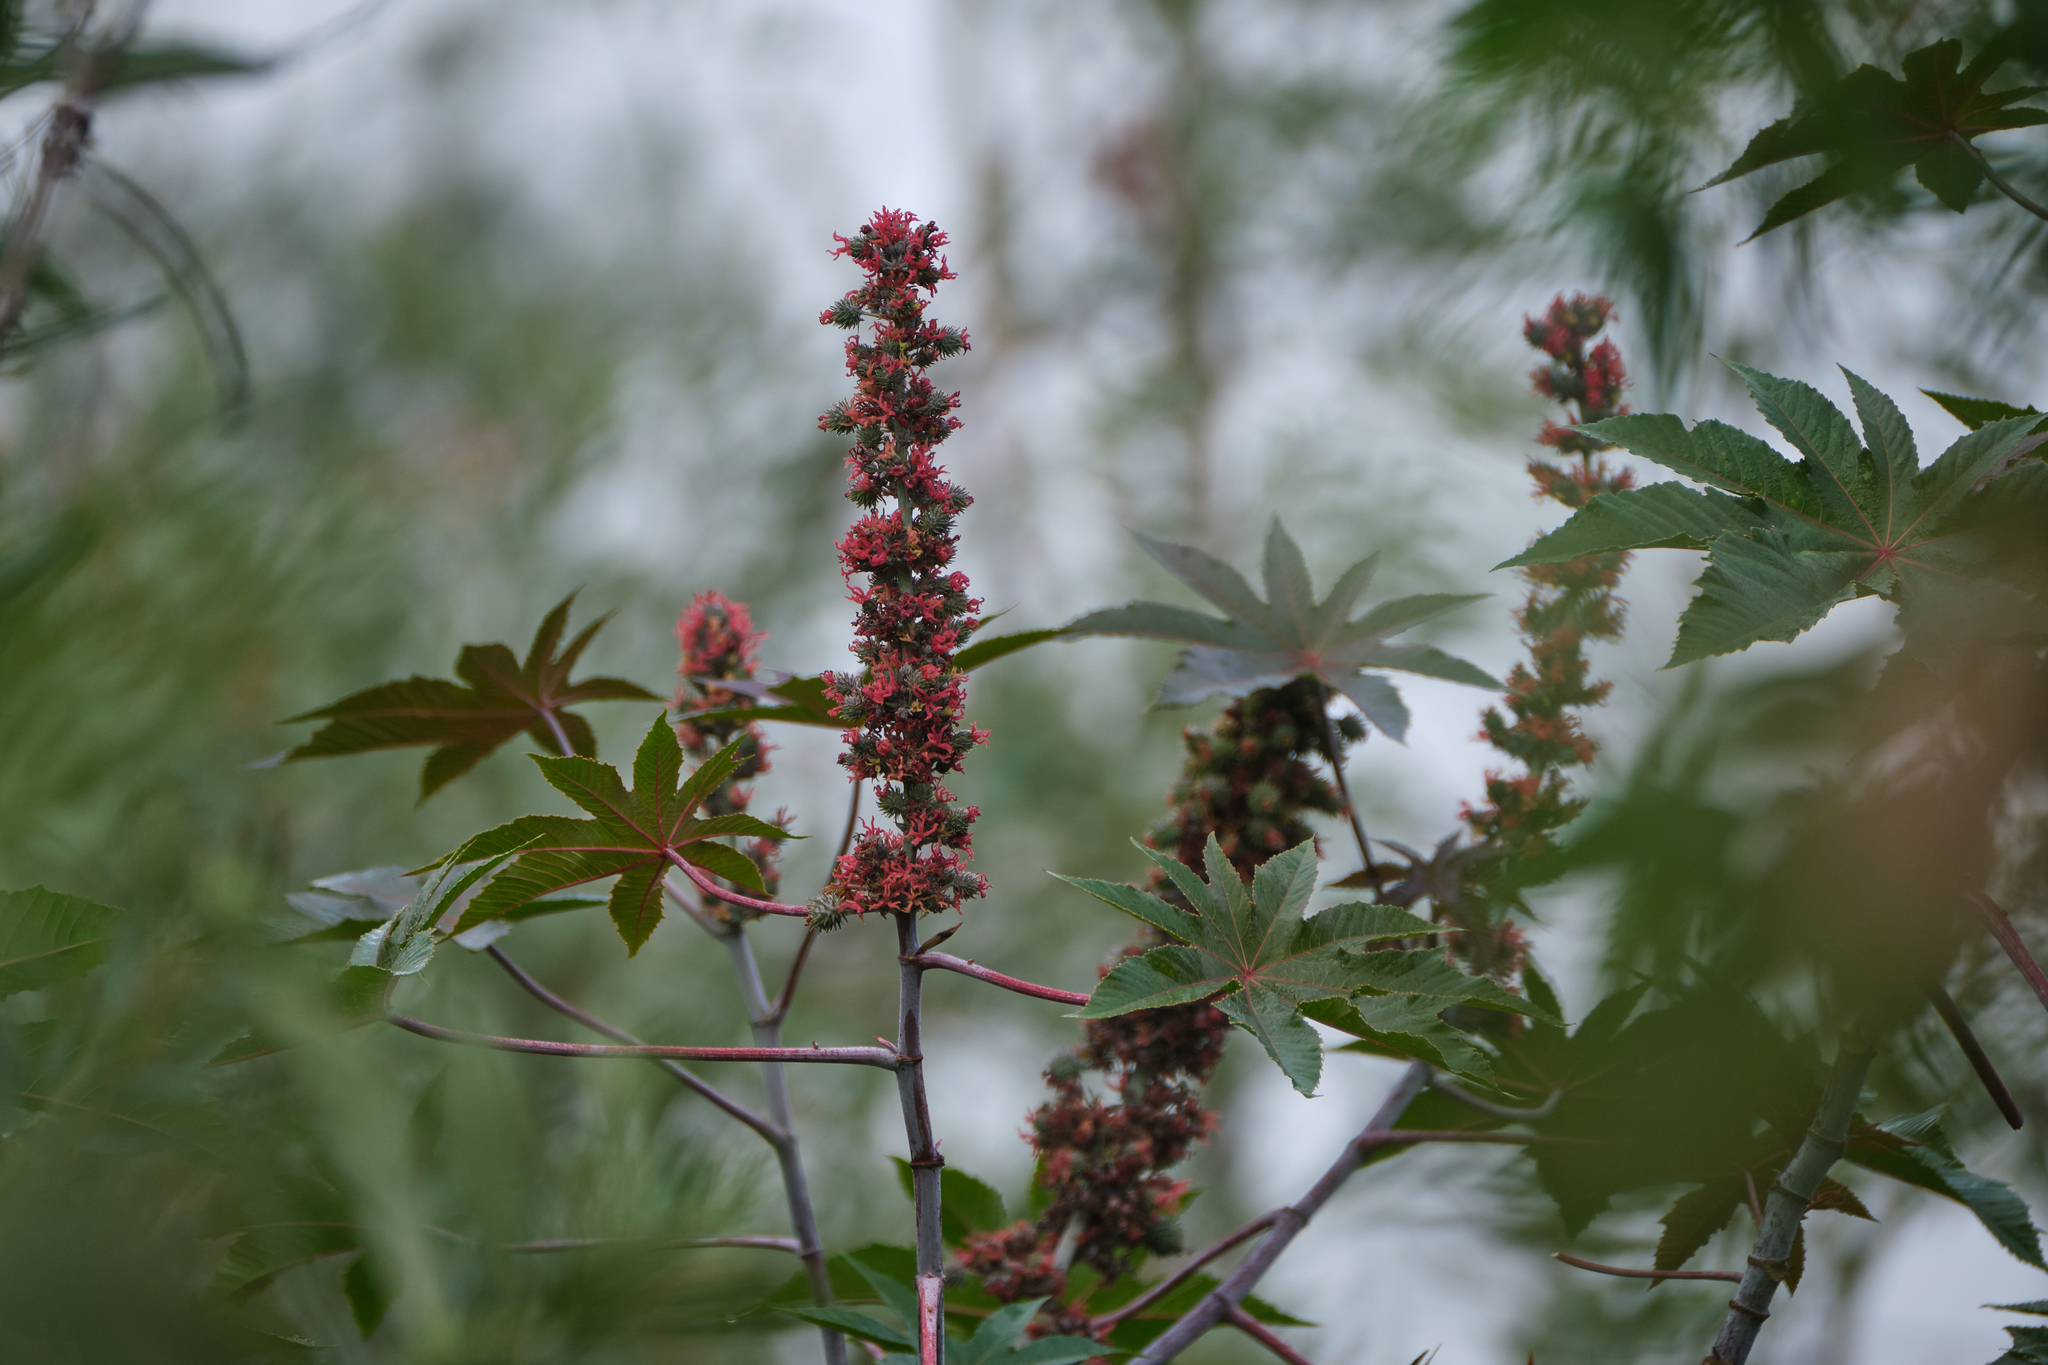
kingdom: Plantae
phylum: Tracheophyta
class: Magnoliopsida
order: Malpighiales
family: Euphorbiaceae
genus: Ricinus
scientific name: Ricinus communis
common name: Castor-oil-plant
